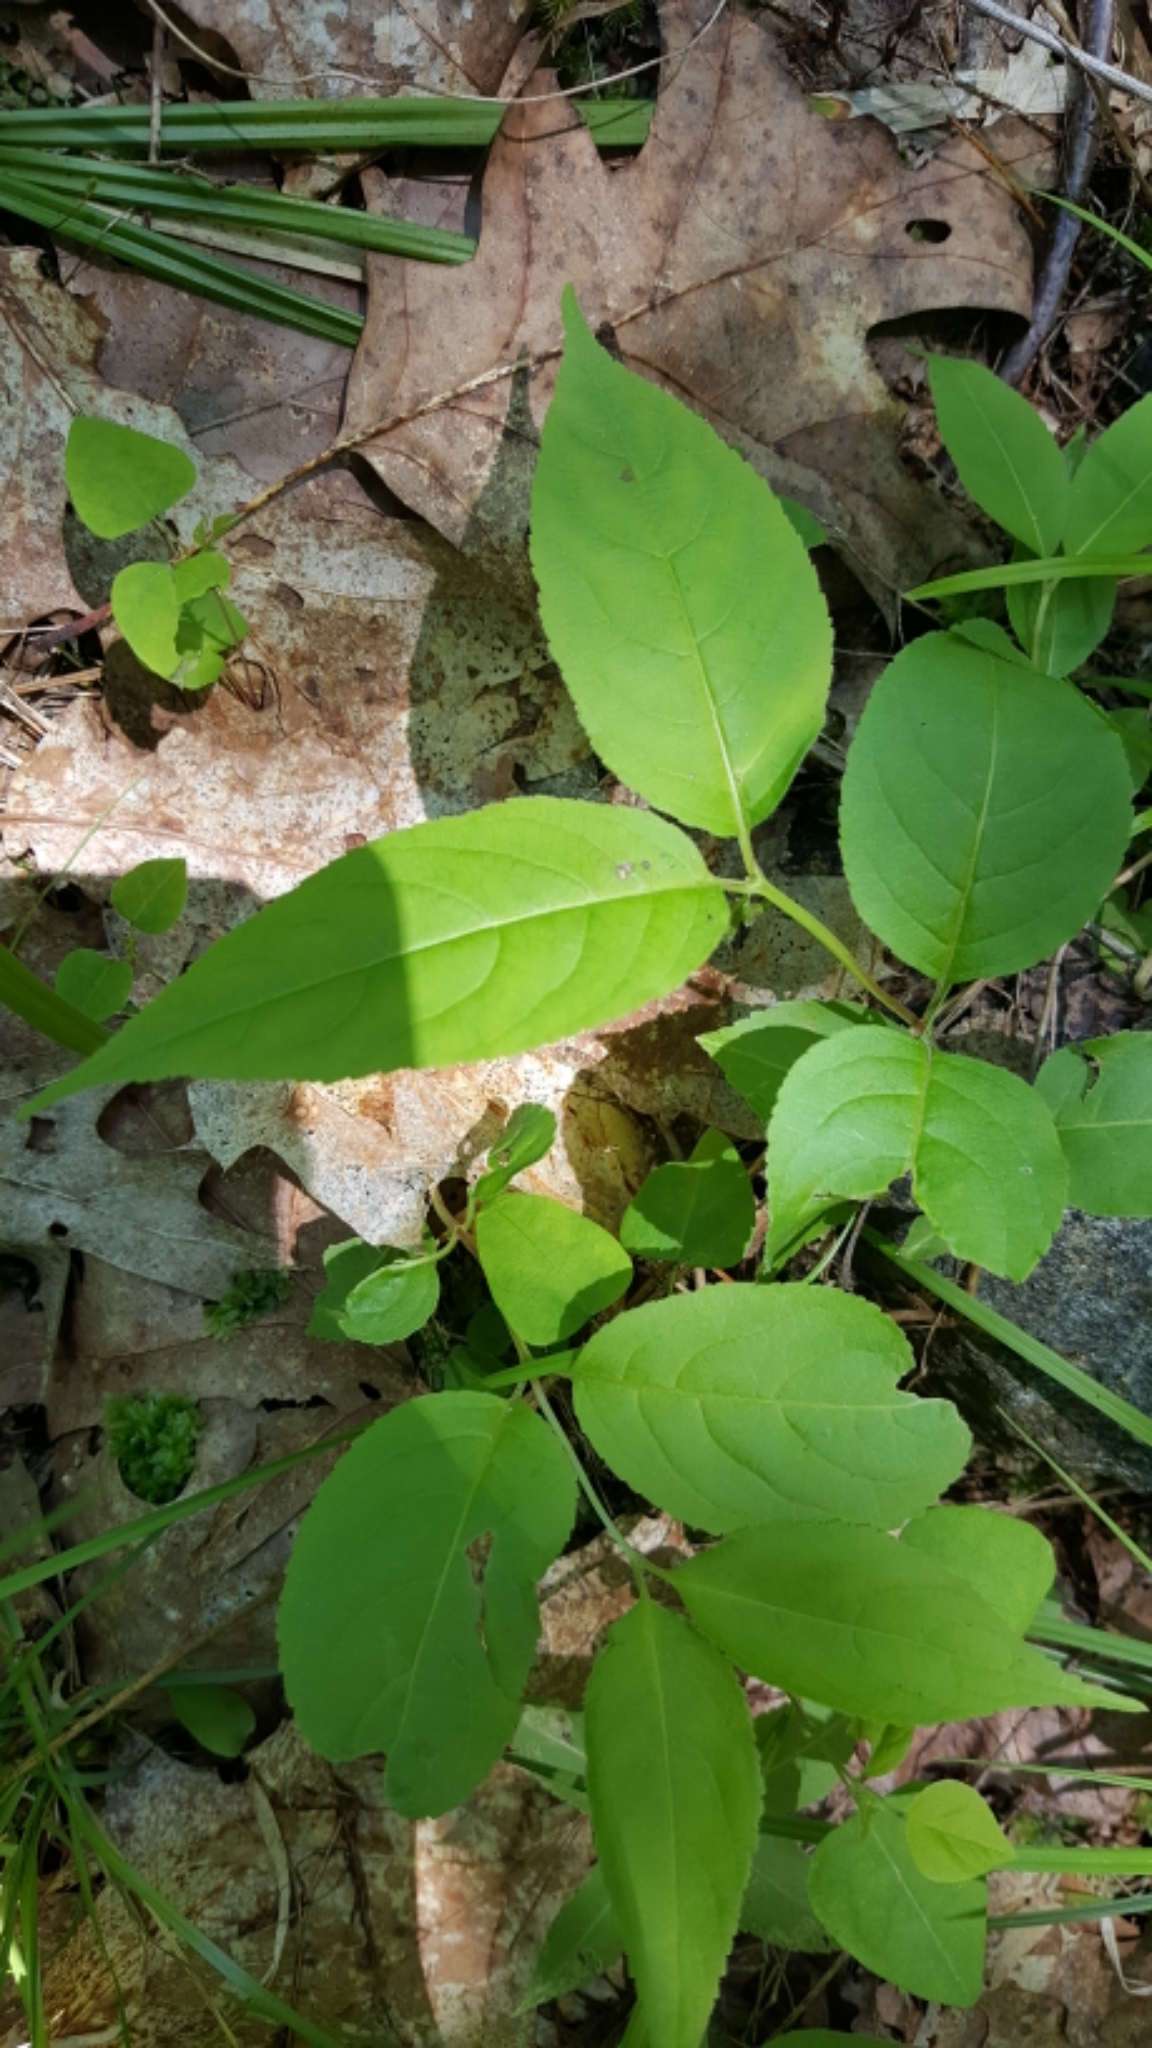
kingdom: Plantae
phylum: Tracheophyta
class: Magnoliopsida
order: Dipsacales
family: Caprifoliaceae
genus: Diervilla
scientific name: Diervilla lonicera
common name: Bush-honeysuckle
